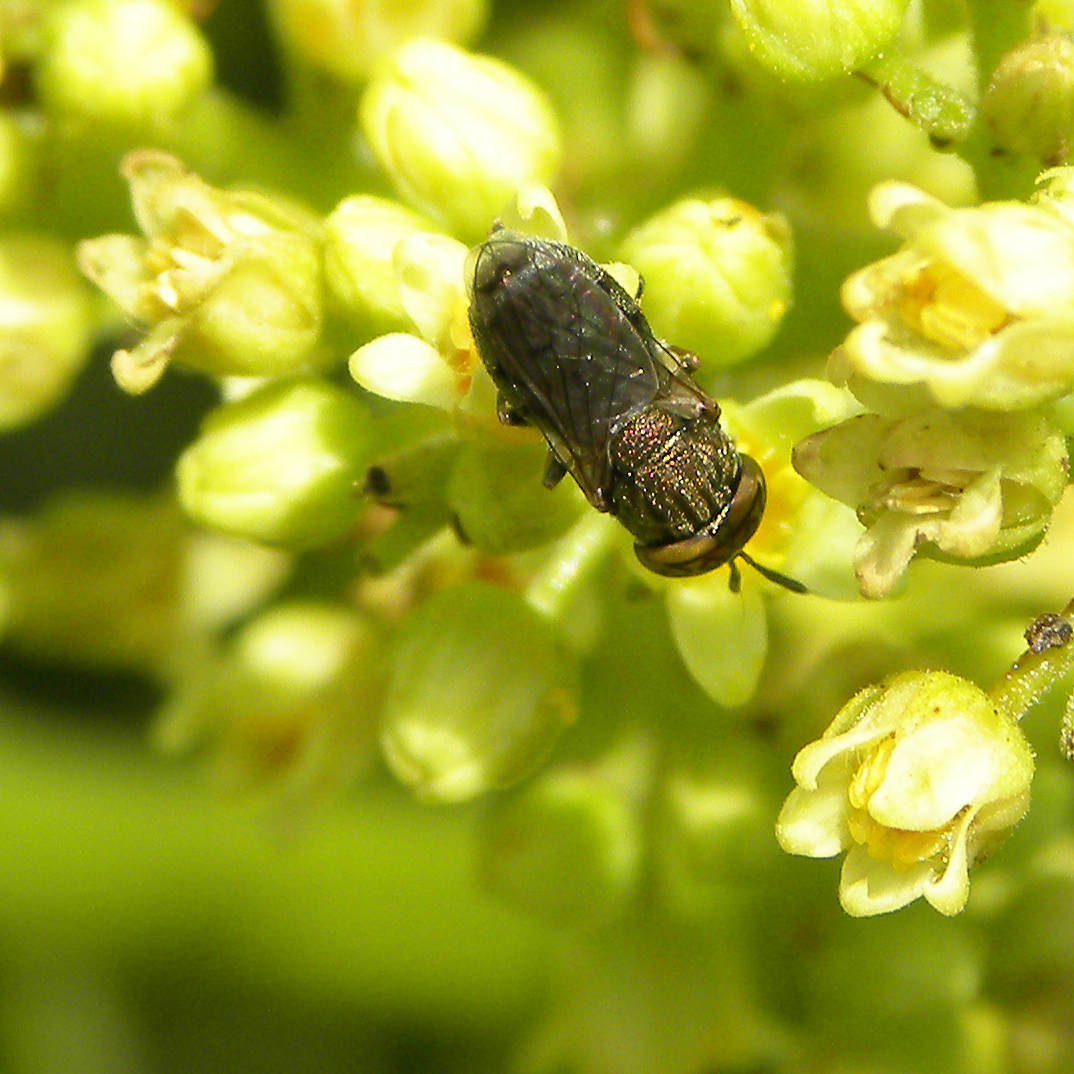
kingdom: Animalia
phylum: Arthropoda
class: Insecta
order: Diptera
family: Syrphidae
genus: Orthonevra
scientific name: Orthonevra nitida
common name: Wavy mucksucker
